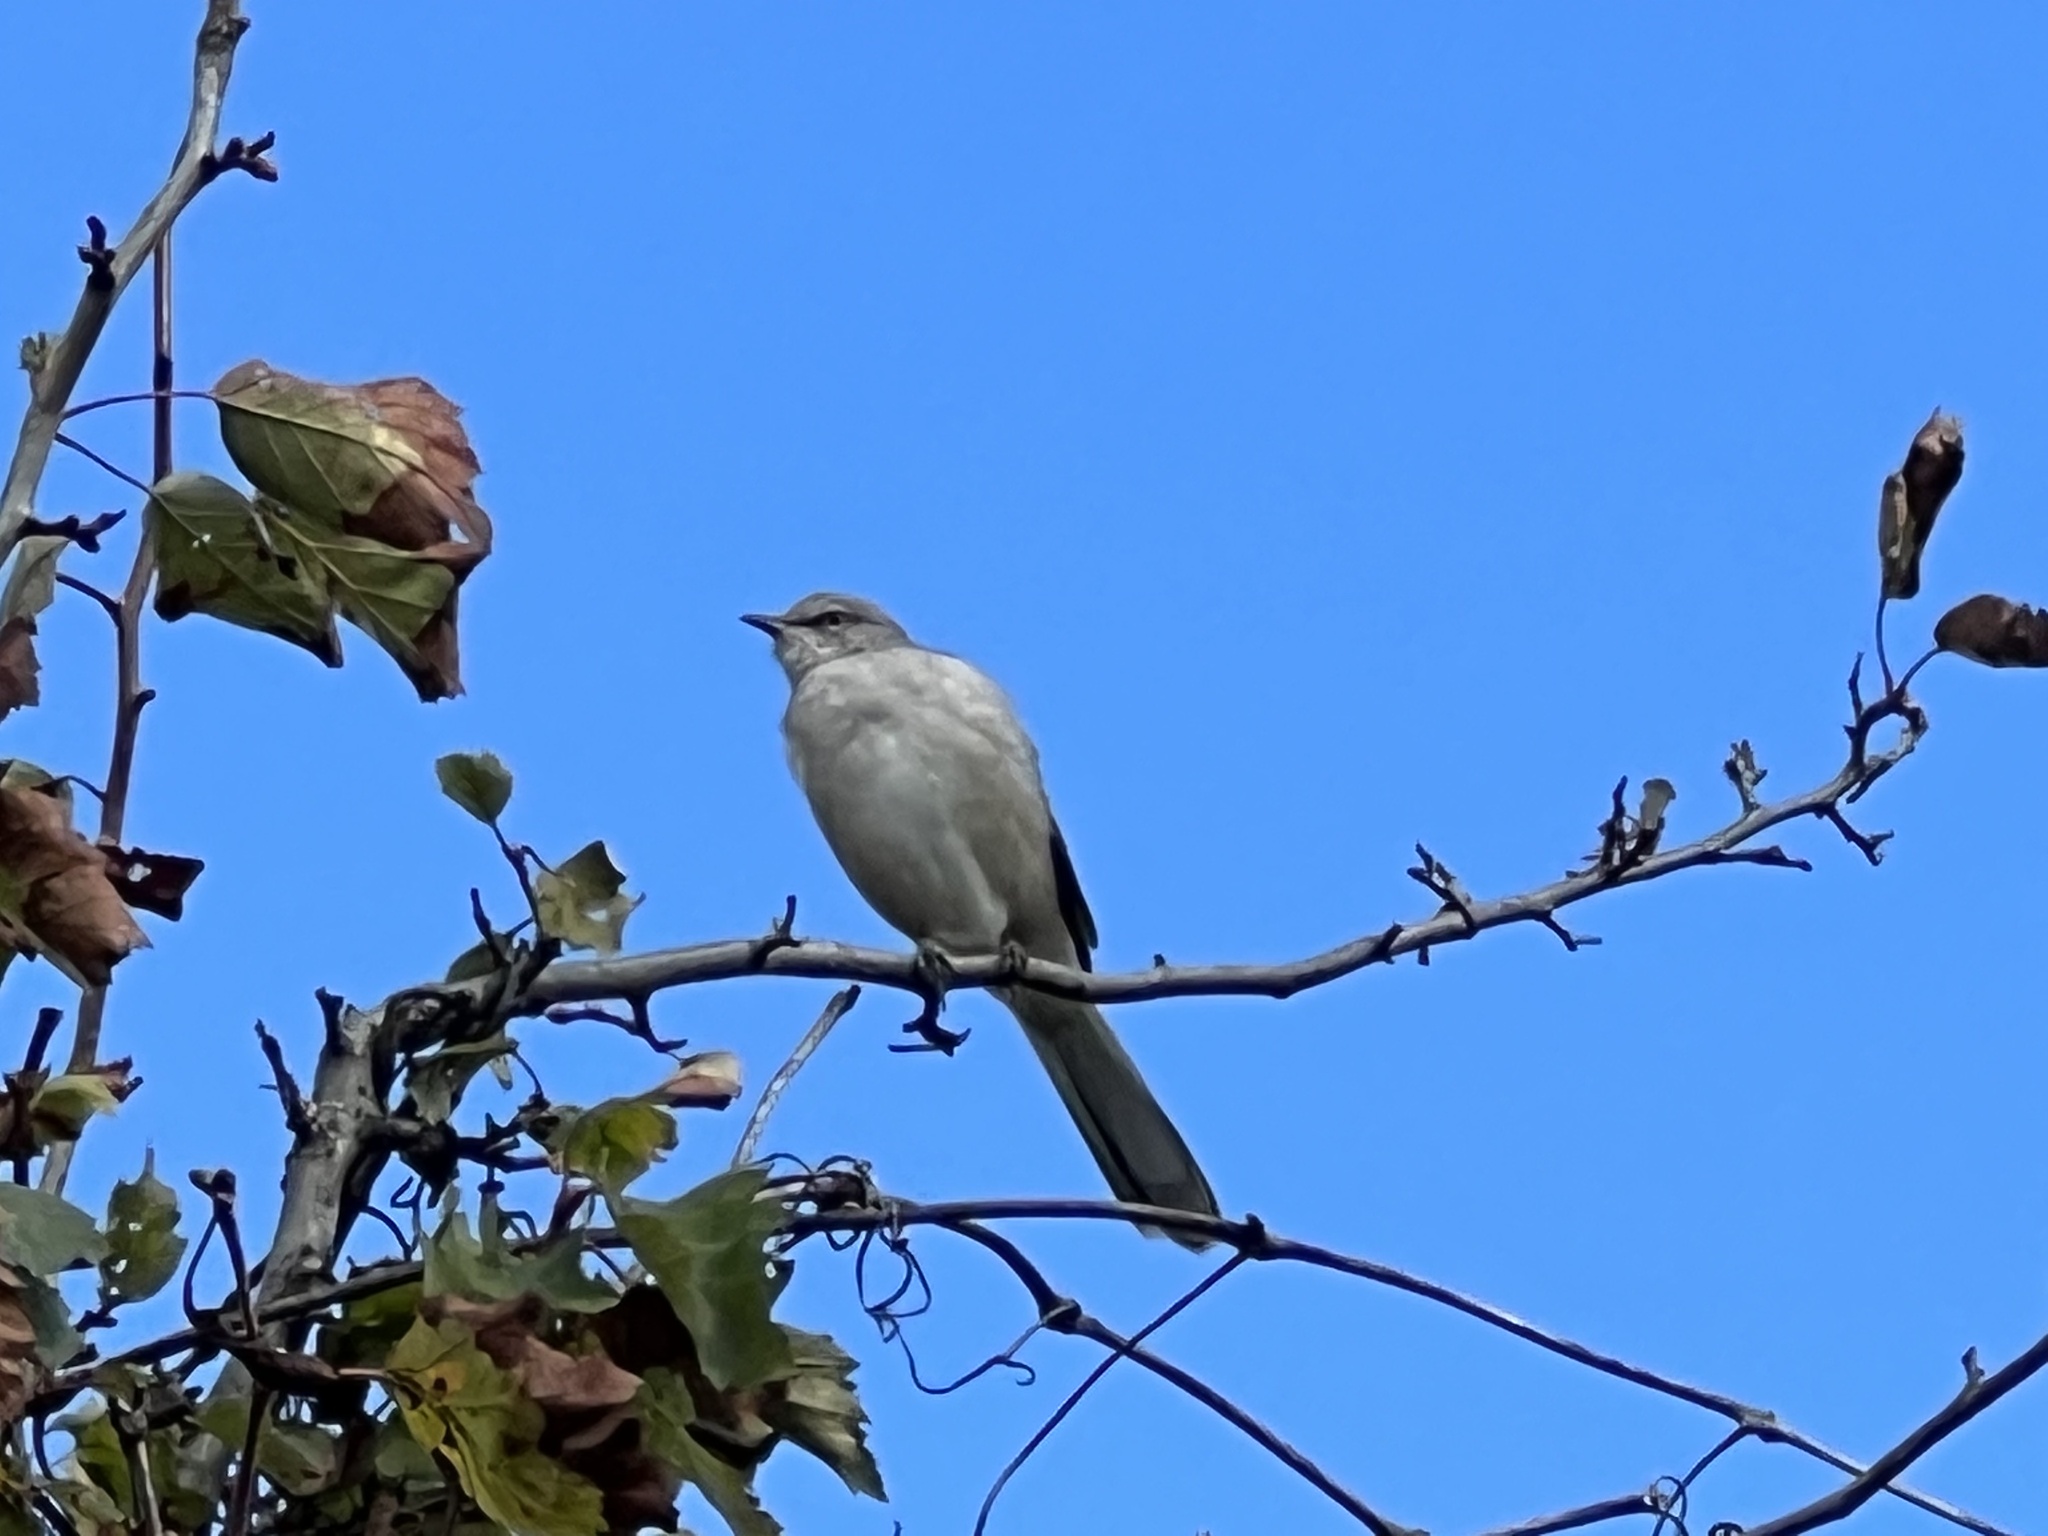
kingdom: Animalia
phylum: Chordata
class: Aves
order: Passeriformes
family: Mimidae
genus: Mimus
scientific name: Mimus polyglottos
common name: Northern mockingbird
